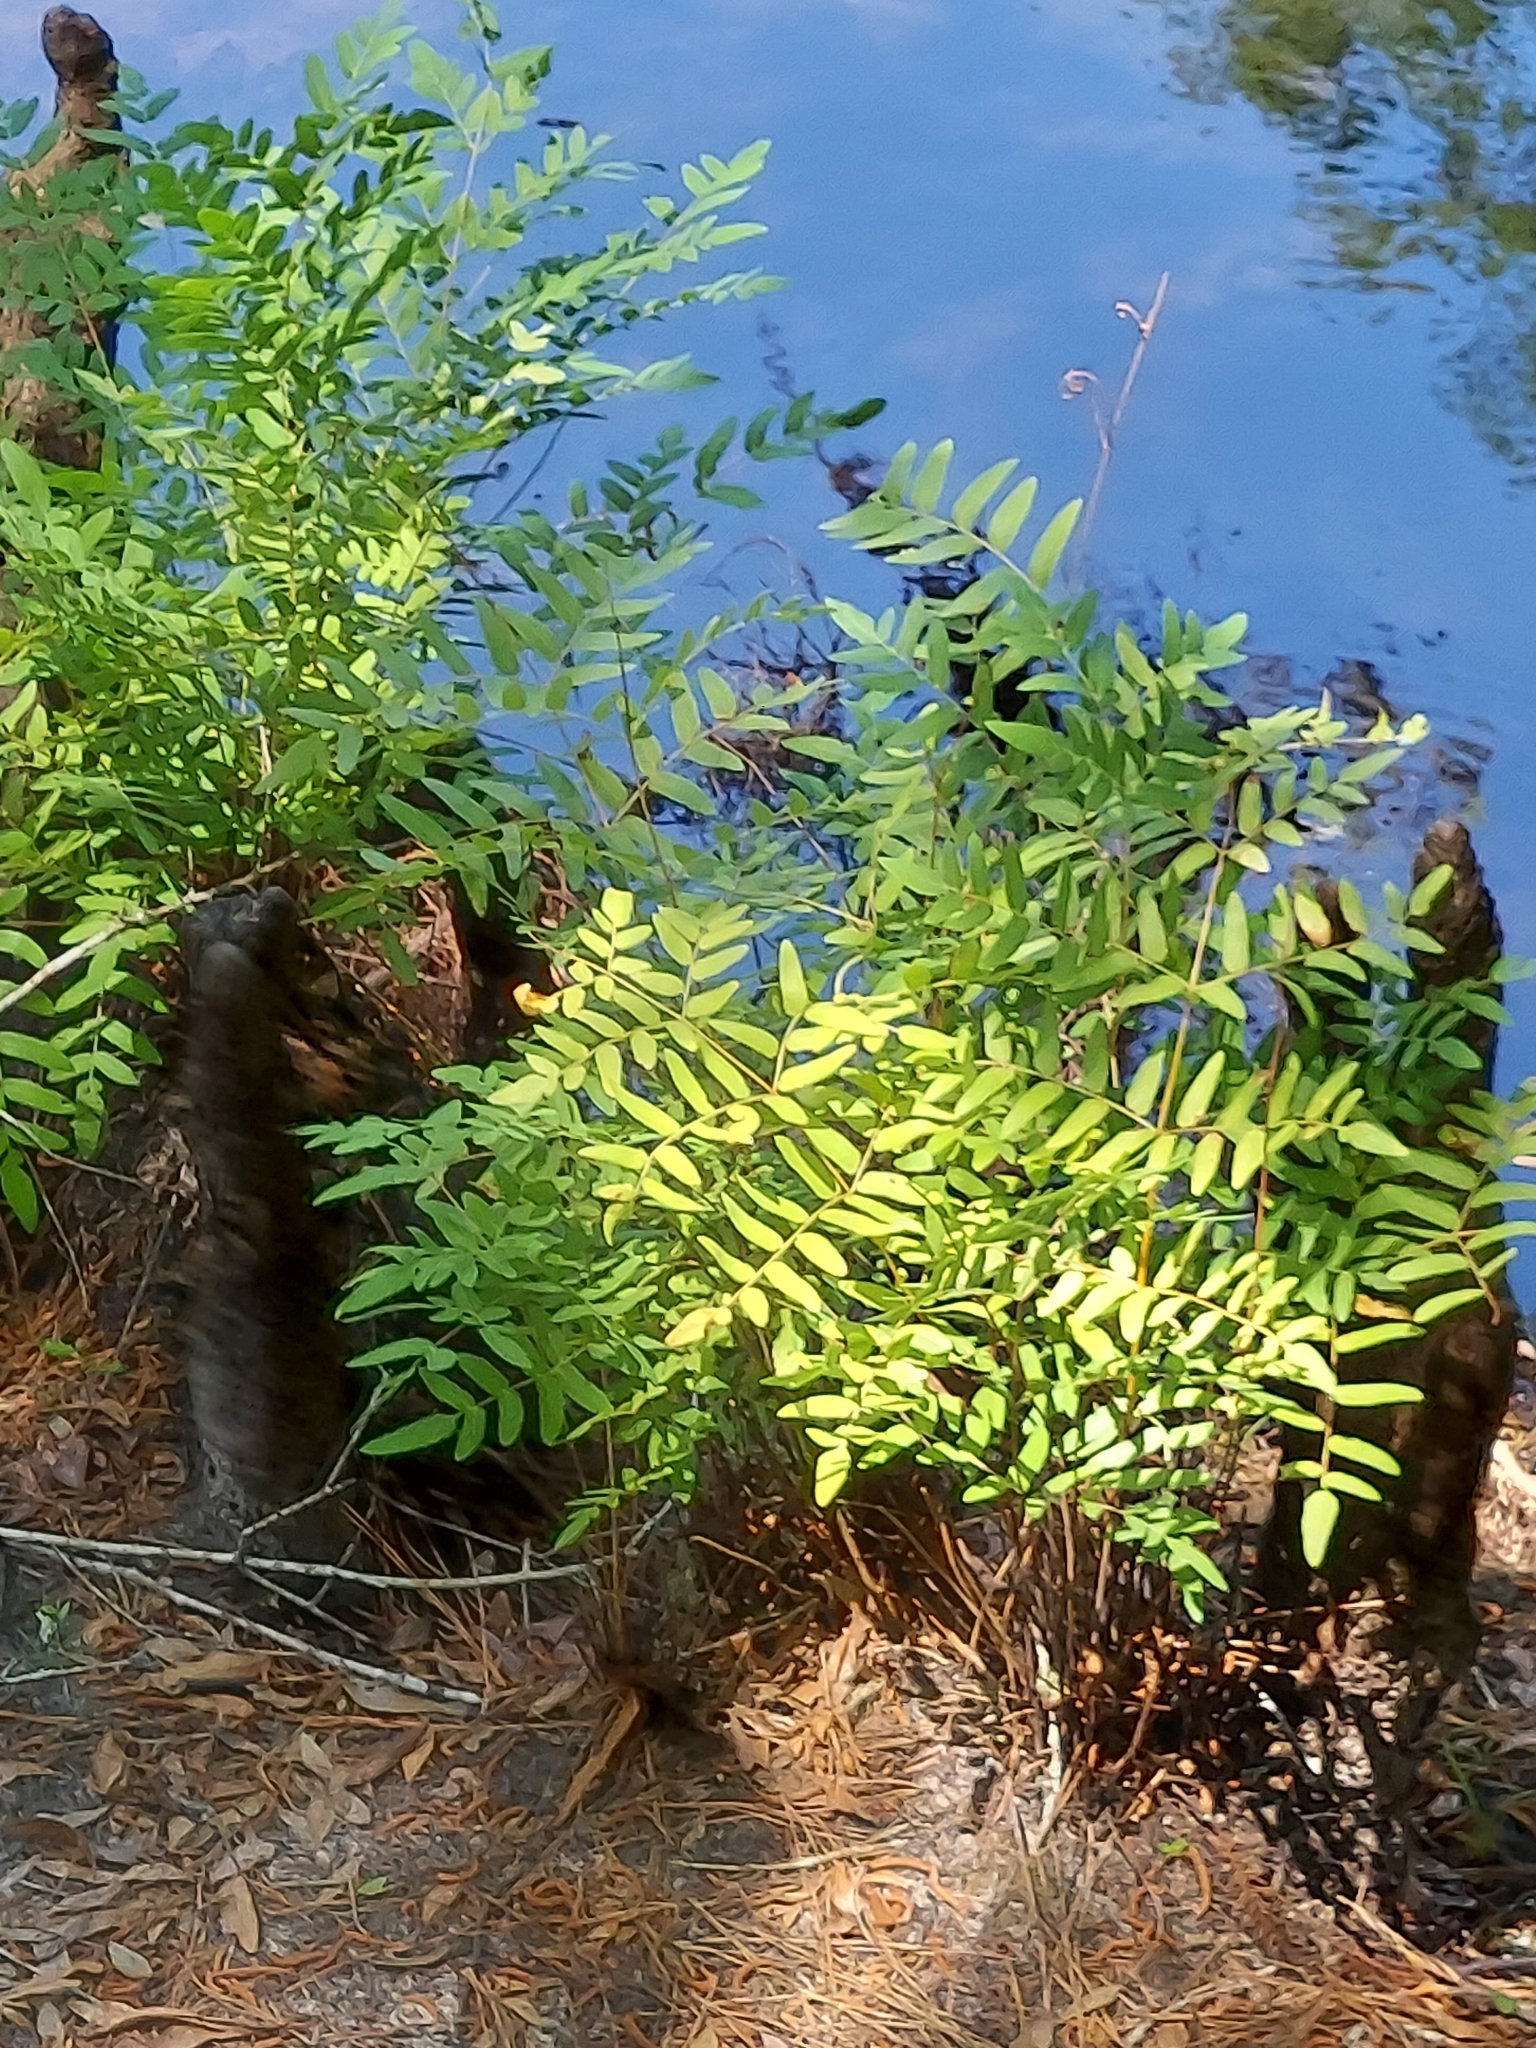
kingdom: Plantae
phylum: Tracheophyta
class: Polypodiopsida
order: Osmundales
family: Osmundaceae
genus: Osmunda
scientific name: Osmunda spectabilis
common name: American royal fern
